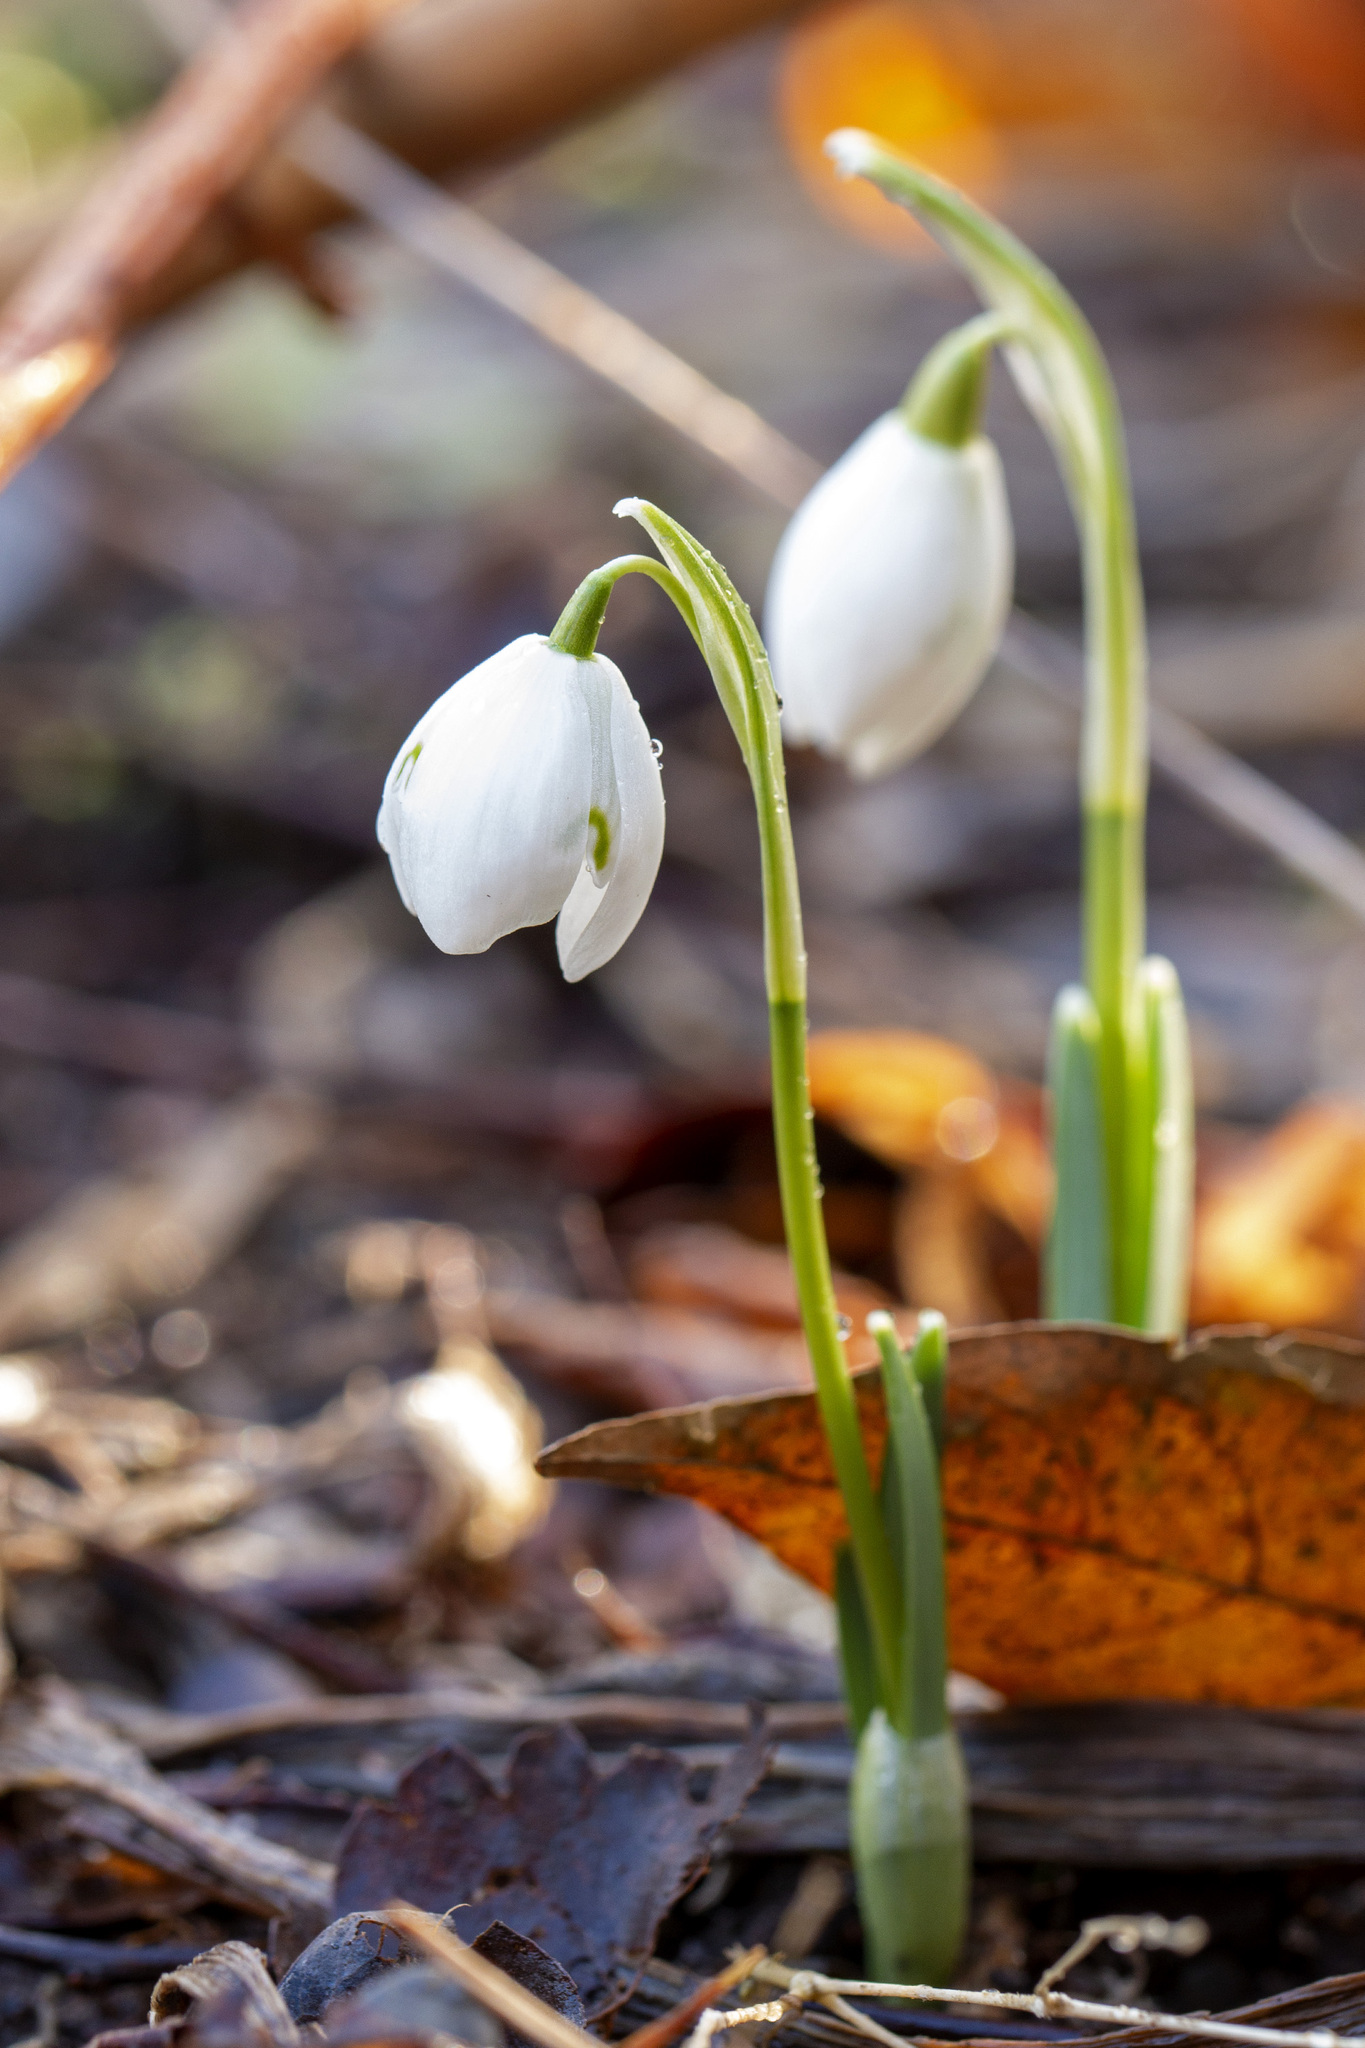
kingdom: Plantae
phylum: Tracheophyta
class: Liliopsida
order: Asparagales
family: Amaryllidaceae
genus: Galanthus
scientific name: Galanthus nivalis
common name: Snowdrop
